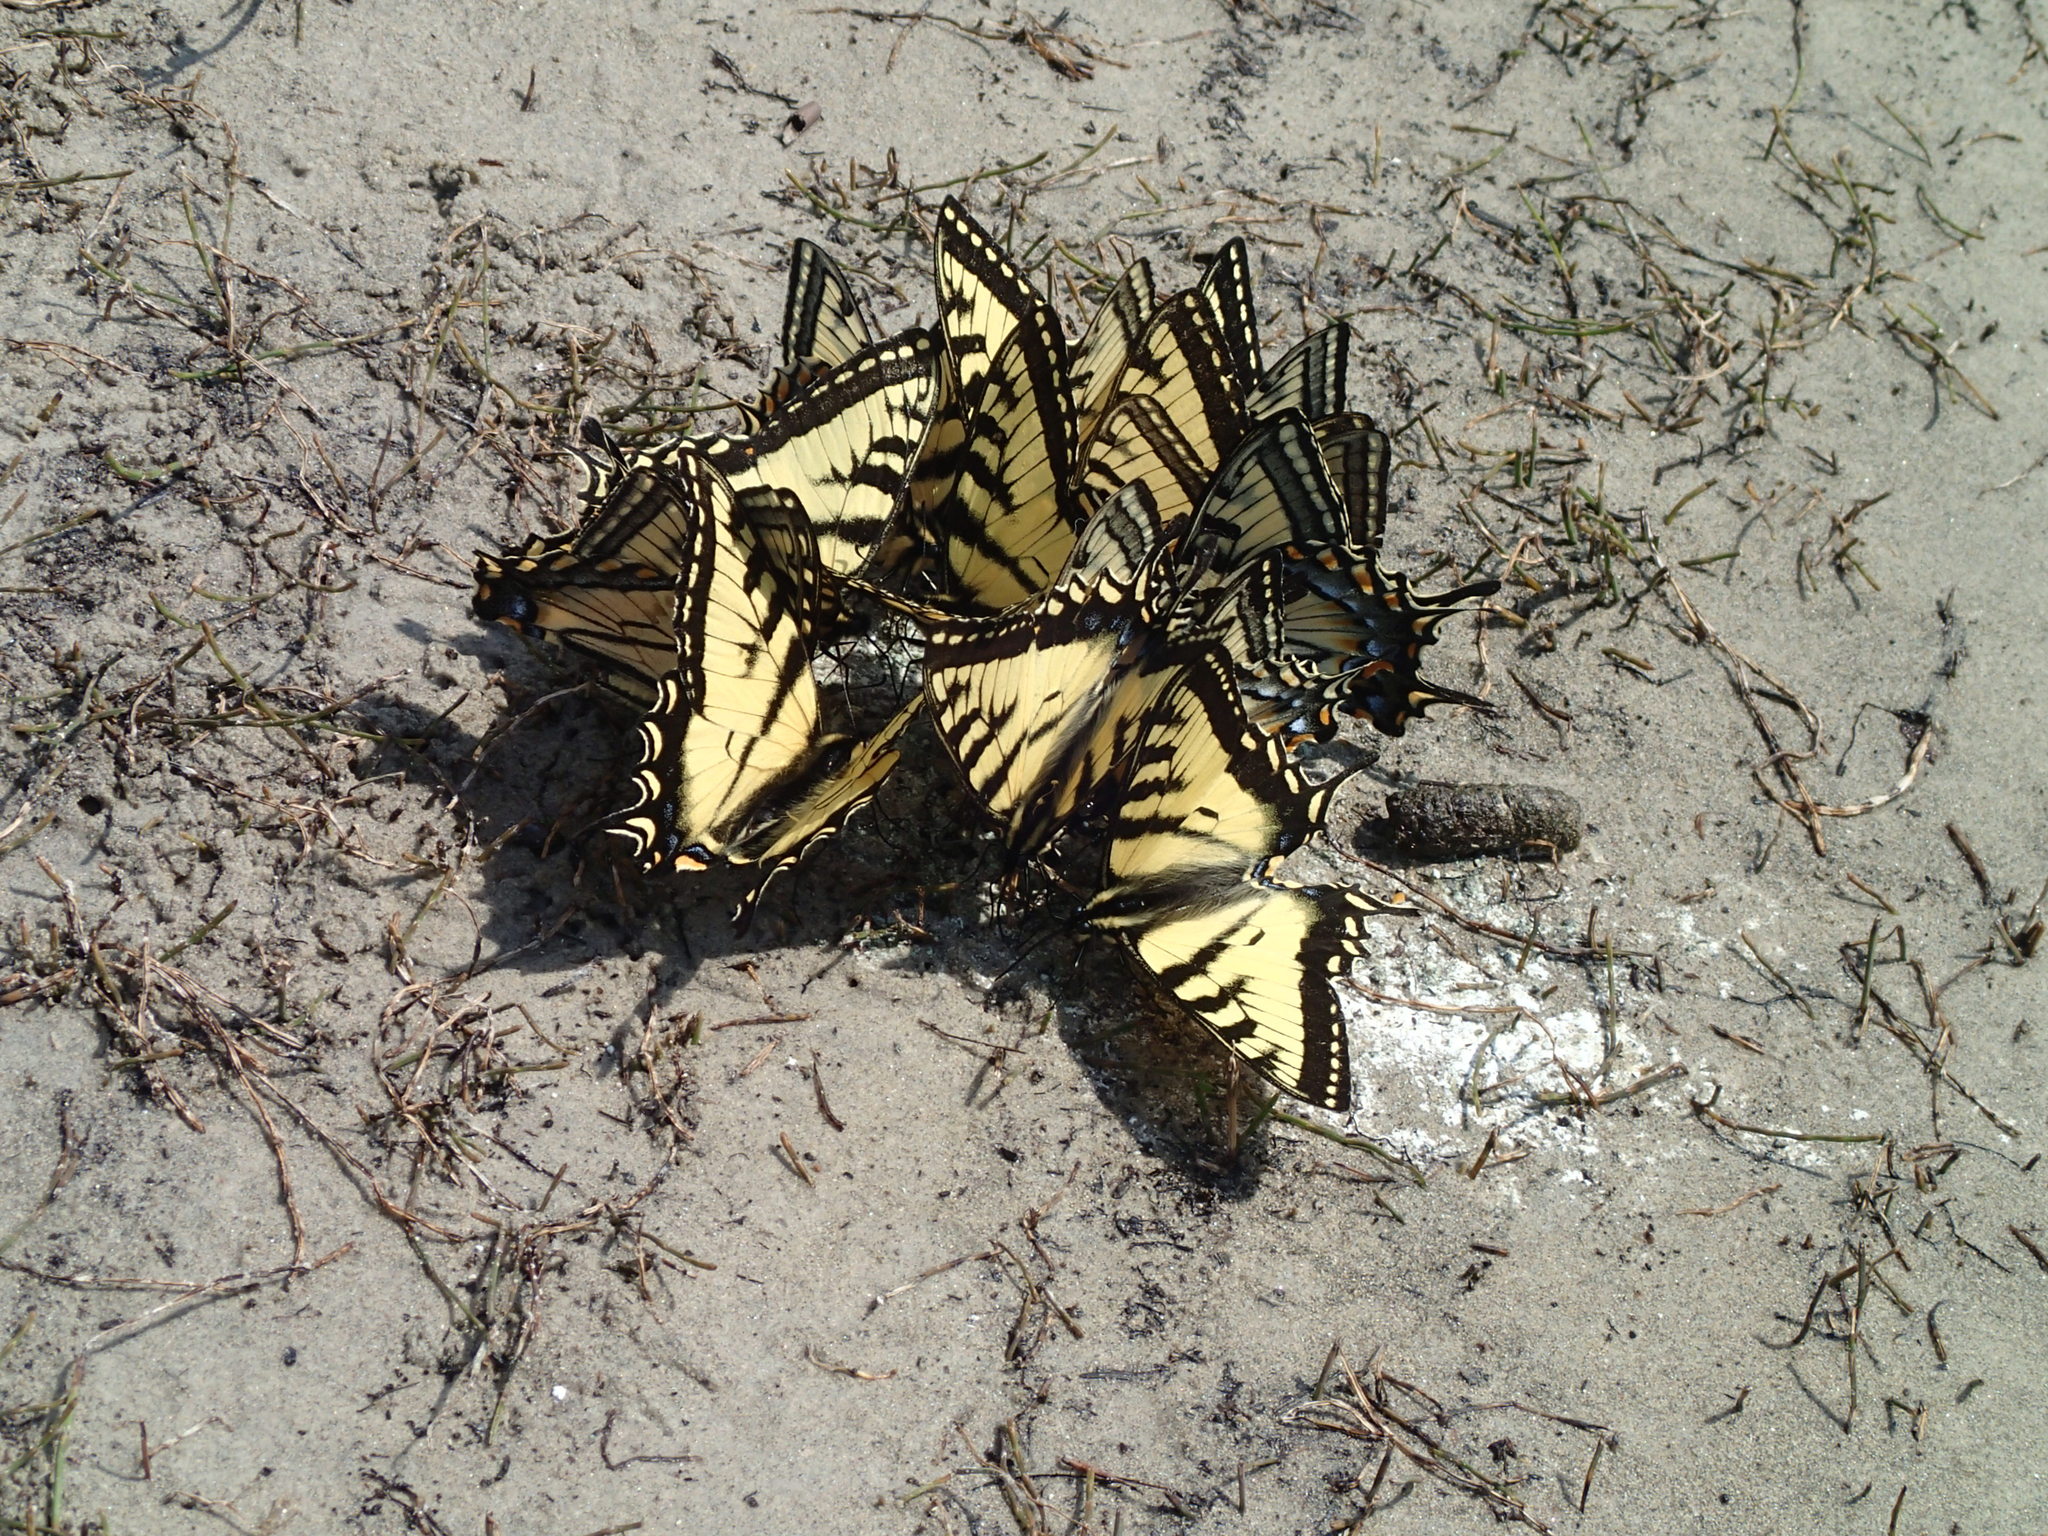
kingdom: Animalia
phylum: Arthropoda
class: Insecta
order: Lepidoptera
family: Papilionidae
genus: Papilio
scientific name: Papilio canadensis
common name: Canadian tiger swallowtail
